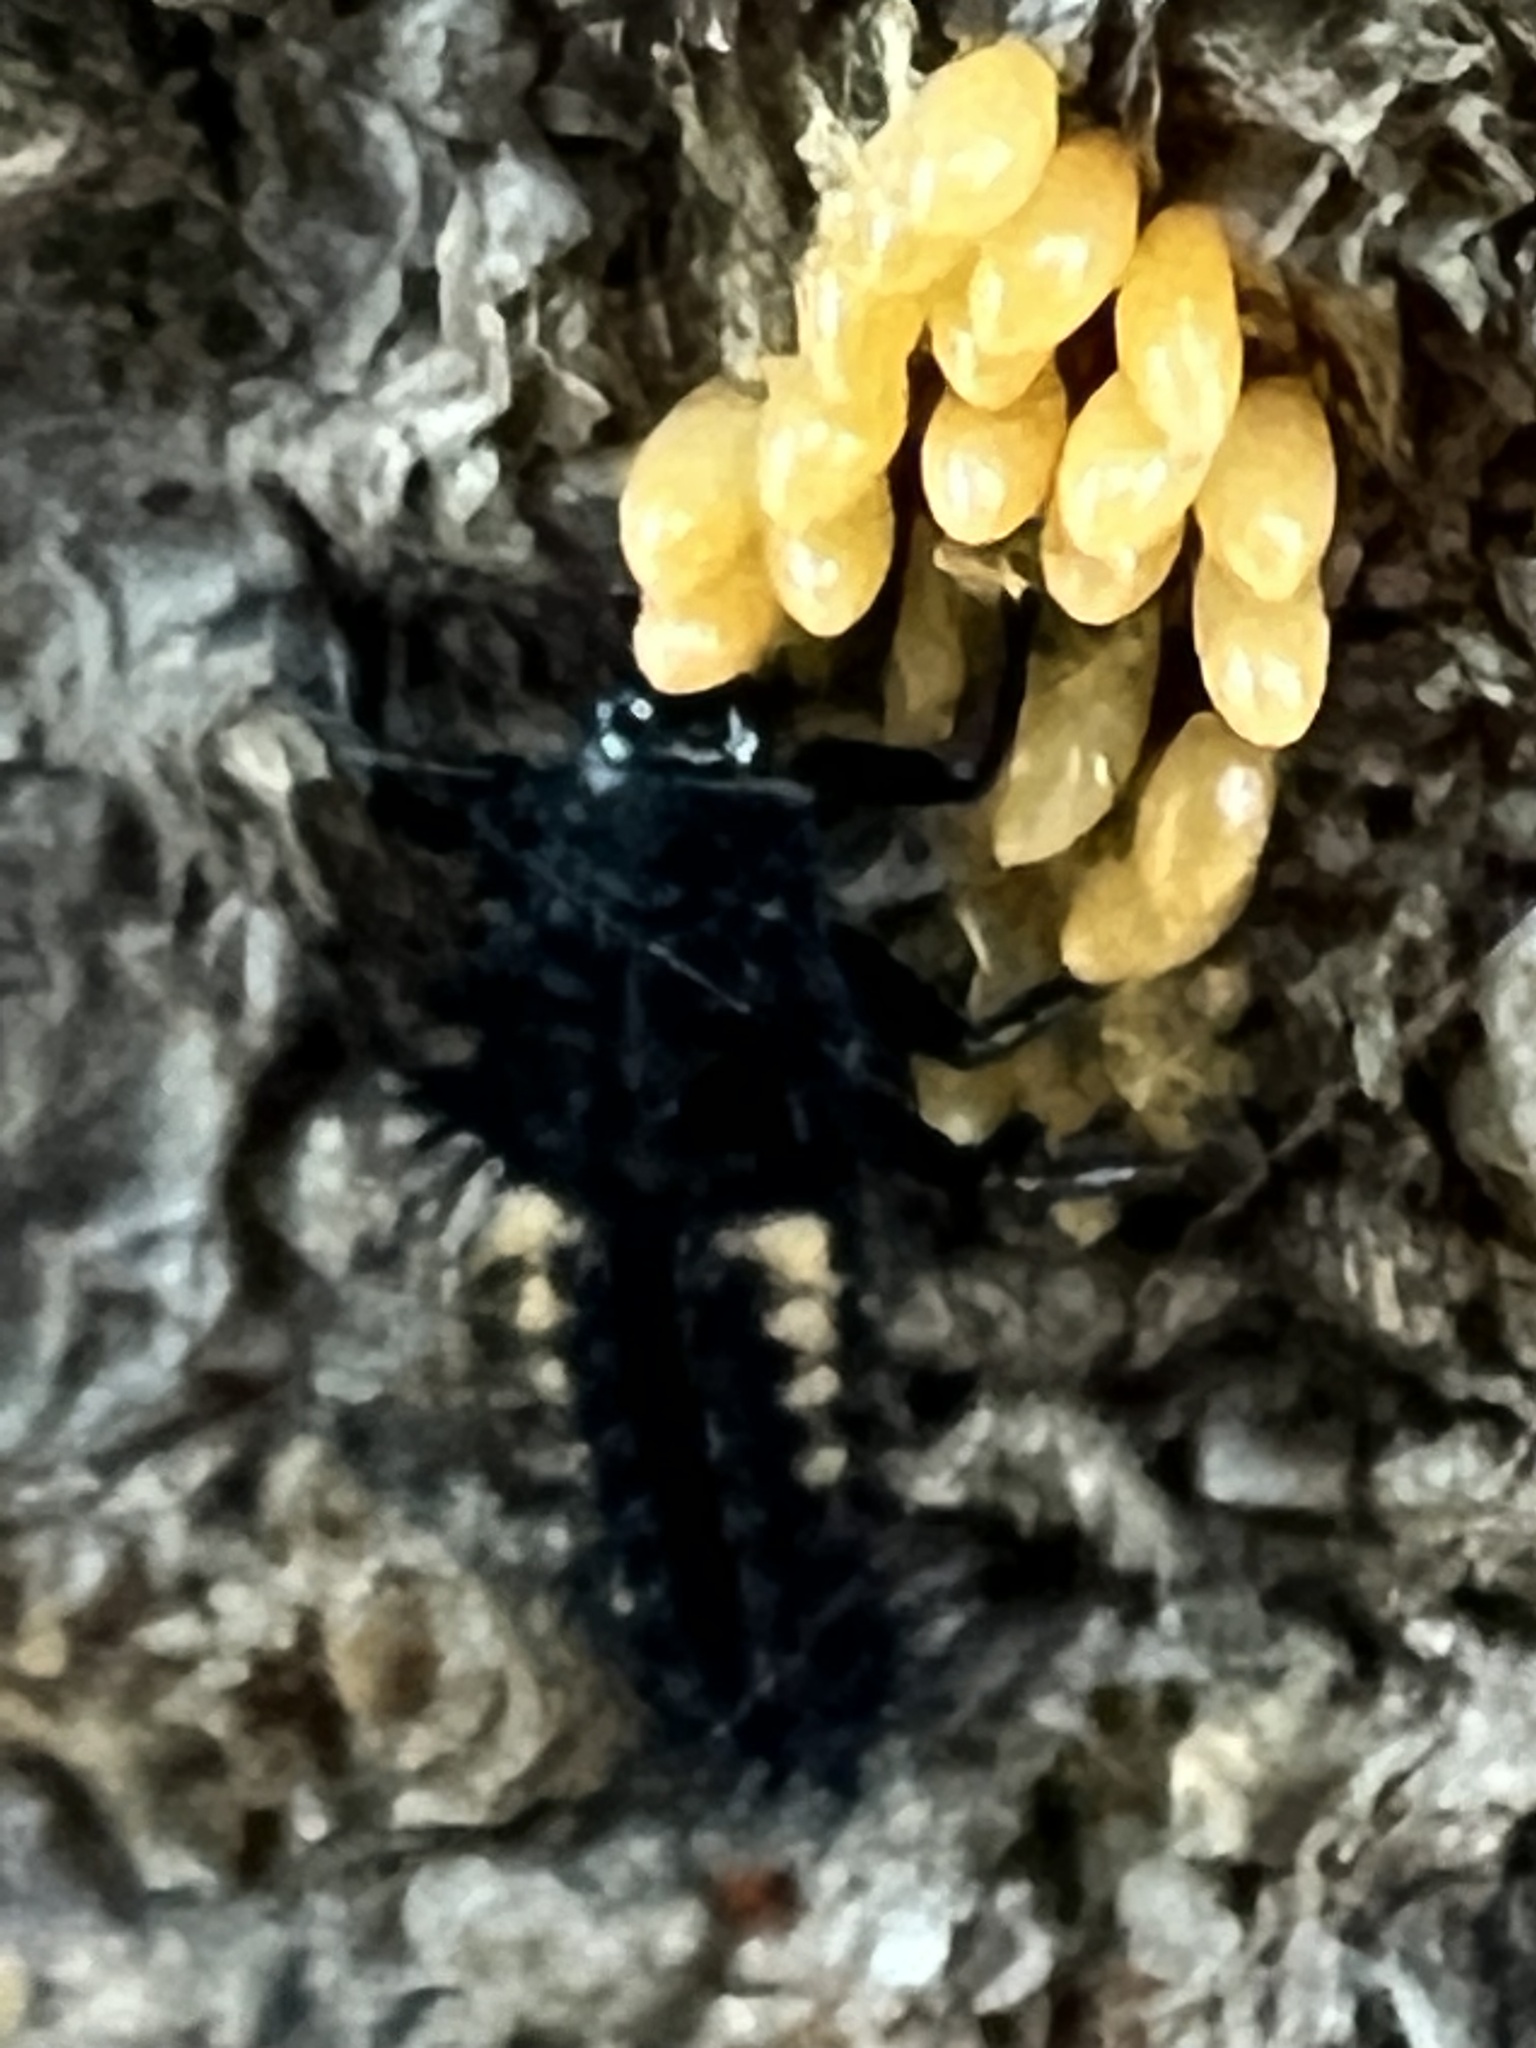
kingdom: Animalia
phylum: Arthropoda
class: Insecta
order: Coleoptera
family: Coccinellidae
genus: Harmonia
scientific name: Harmonia axyridis
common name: Harlequin ladybird
